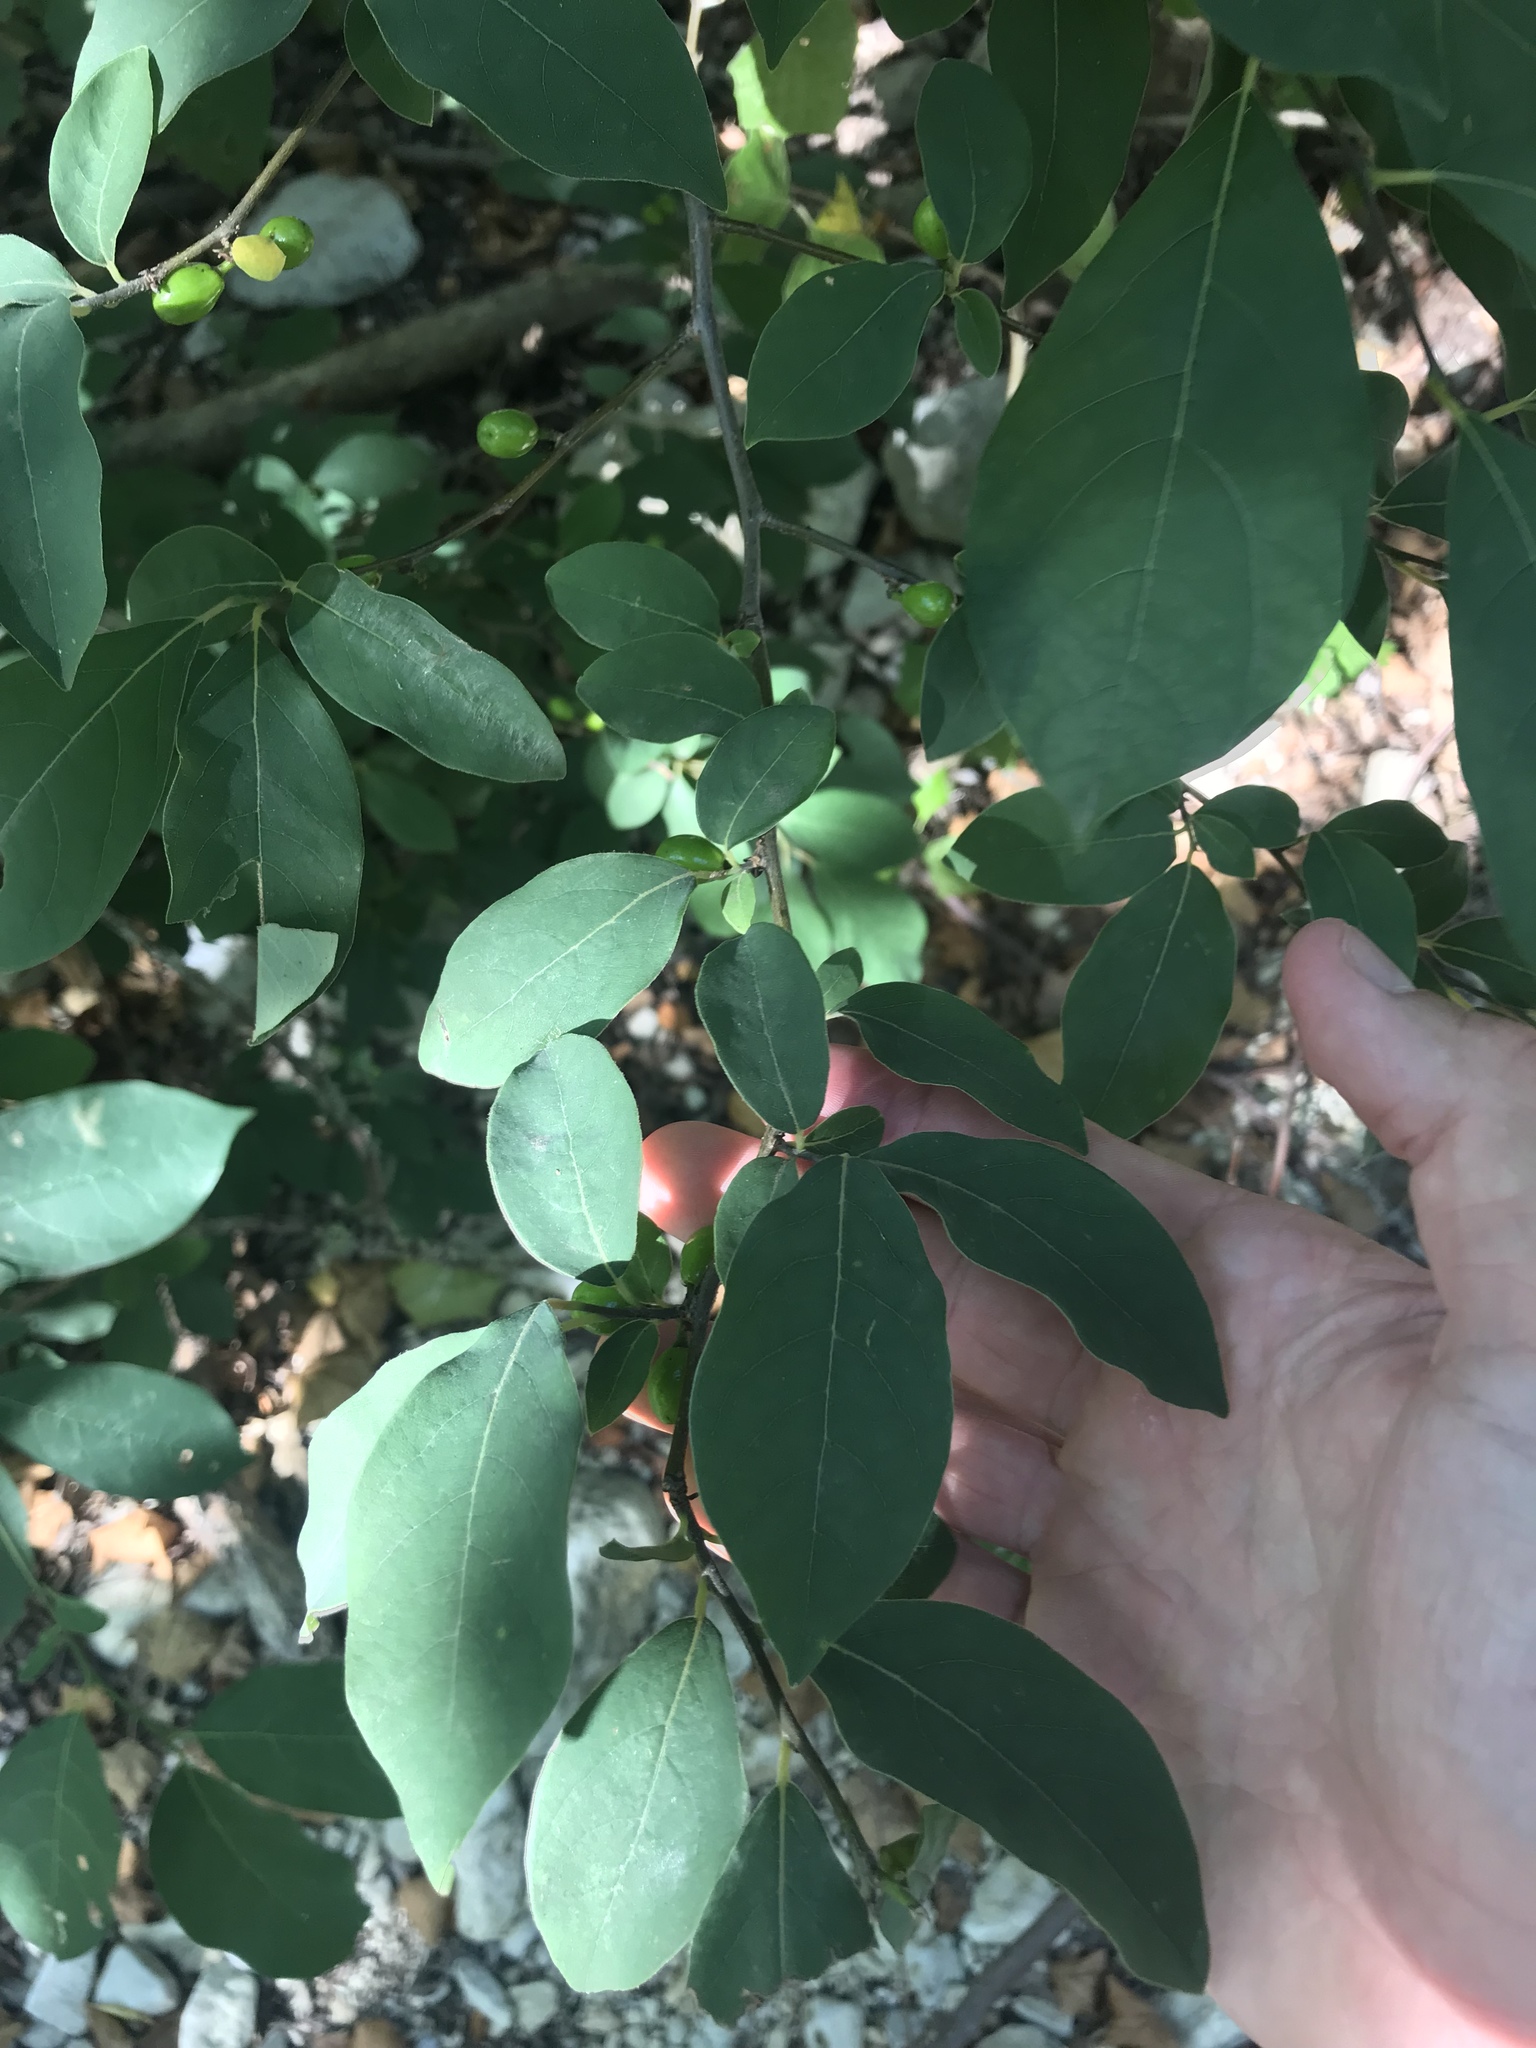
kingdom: Plantae
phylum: Tracheophyta
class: Magnoliopsida
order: Laurales
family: Lauraceae
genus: Lindera
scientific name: Lindera benzoin
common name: Spicebush
